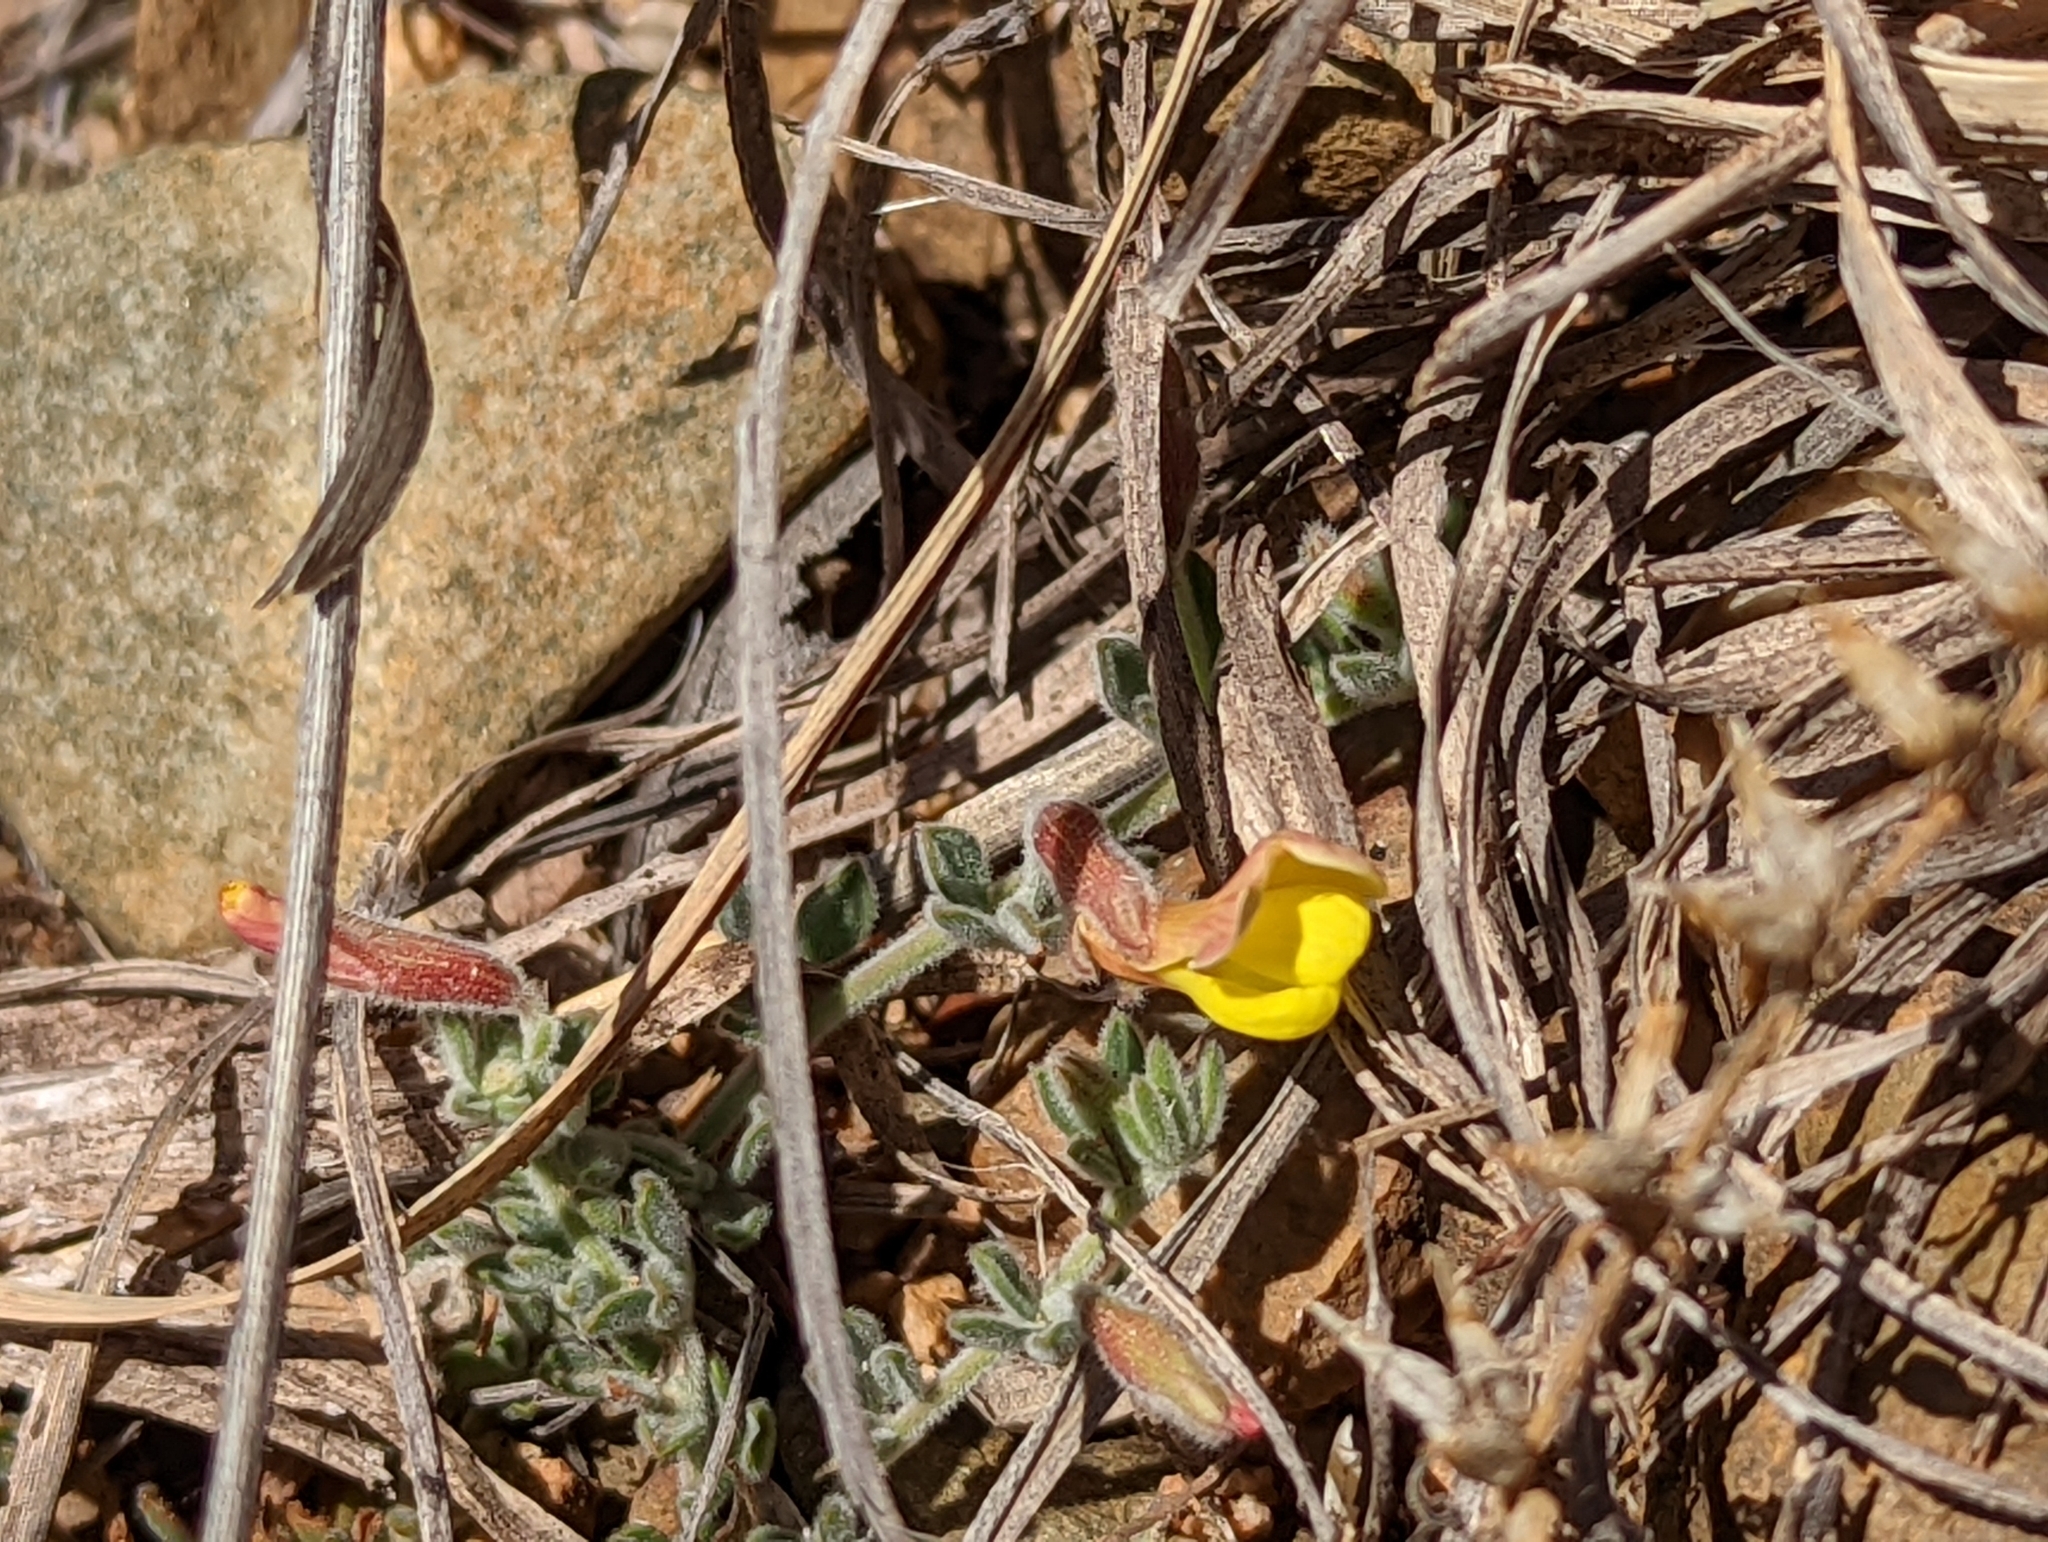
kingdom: Plantae
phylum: Tracheophyta
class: Magnoliopsida
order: Fabales
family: Fabaceae
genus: Acmispon
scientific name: Acmispon neomexicanus
